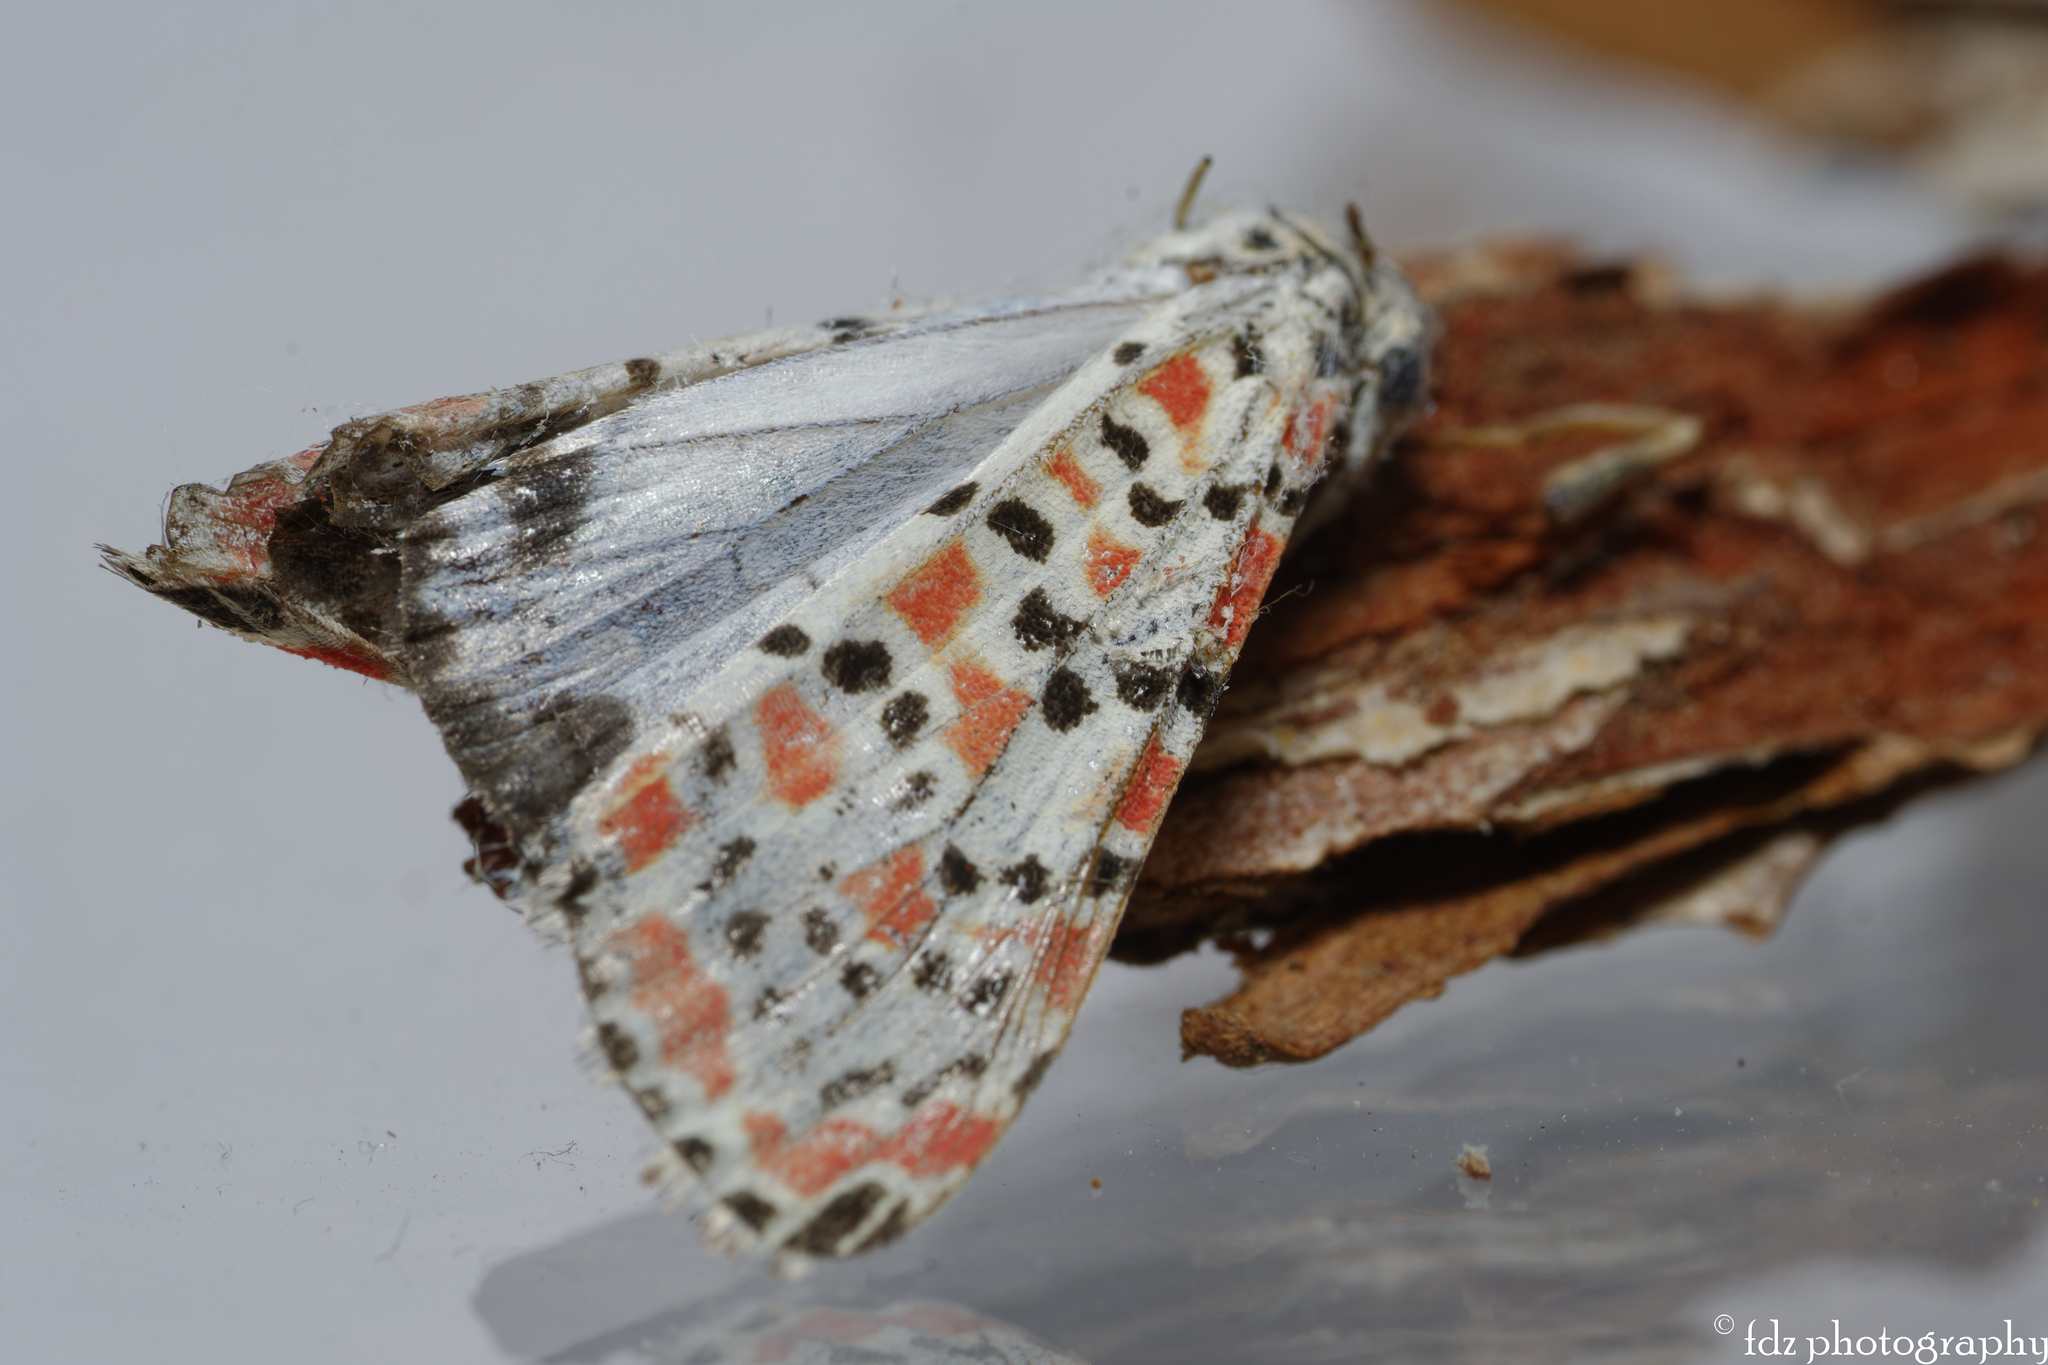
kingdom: Animalia
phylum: Arthropoda
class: Insecta
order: Lepidoptera
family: Erebidae
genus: Utetheisa
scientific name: Utetheisa pulchella
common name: Crimson speckled
